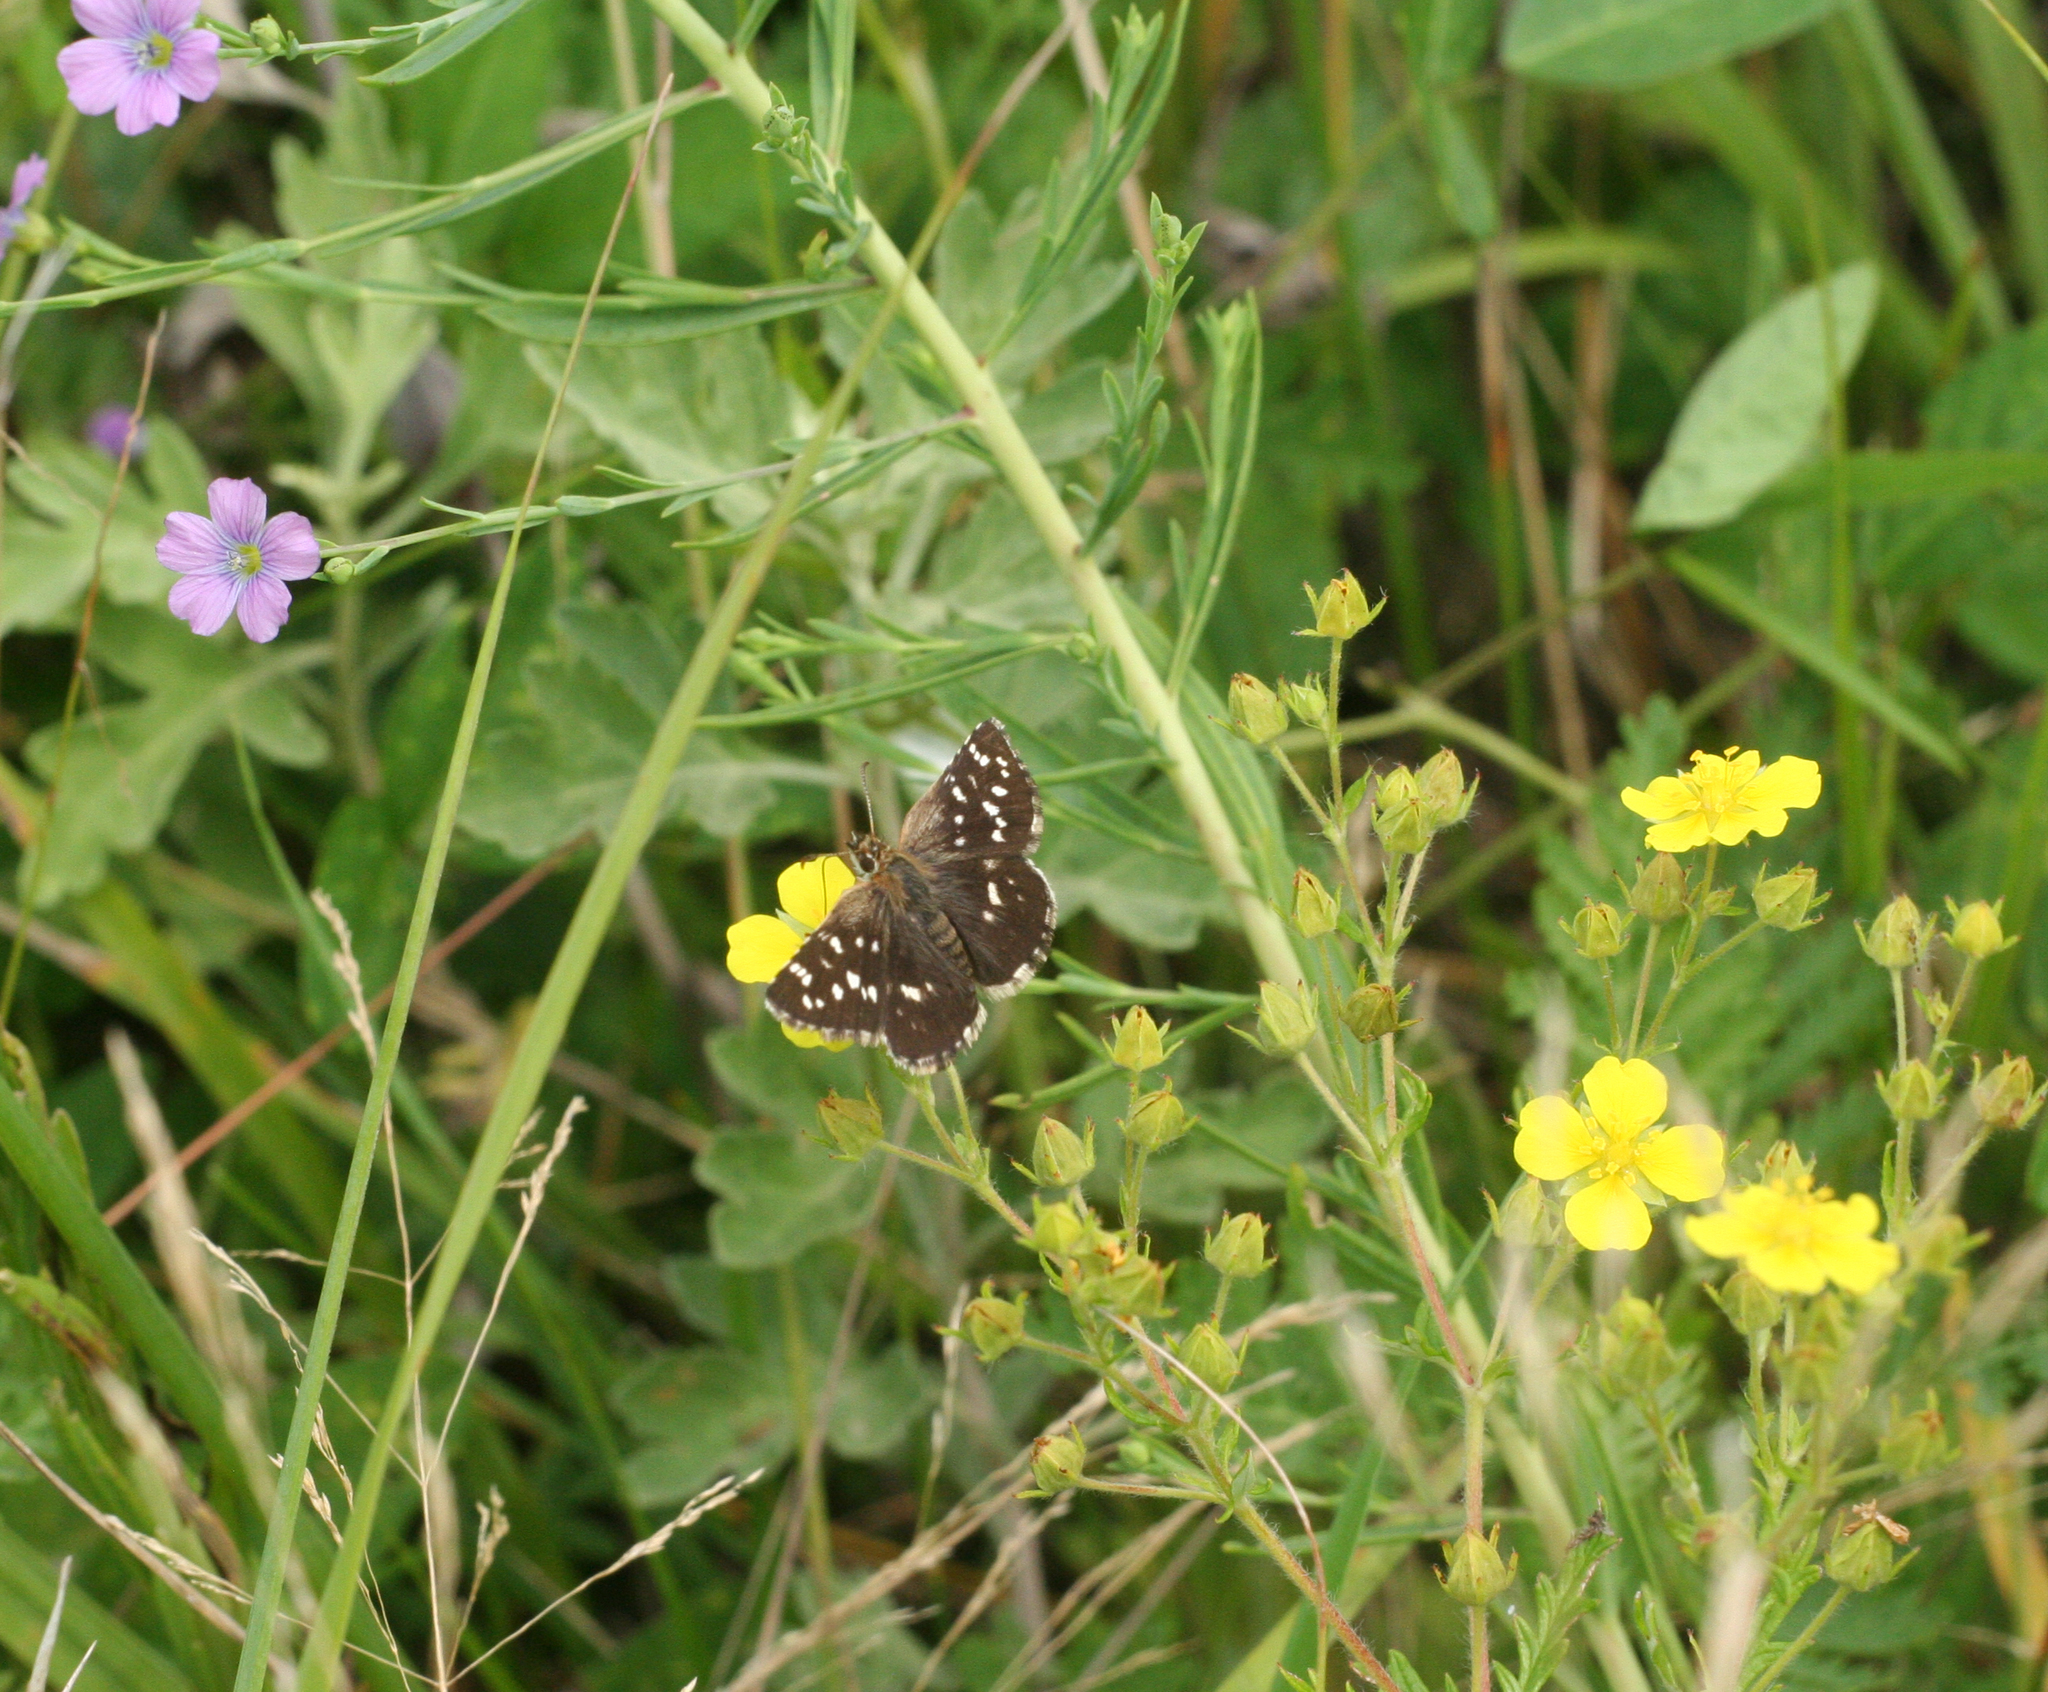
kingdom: Animalia
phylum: Arthropoda
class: Insecta
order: Lepidoptera
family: Hesperiidae
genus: Pyrgus
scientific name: Pyrgus maculatus
